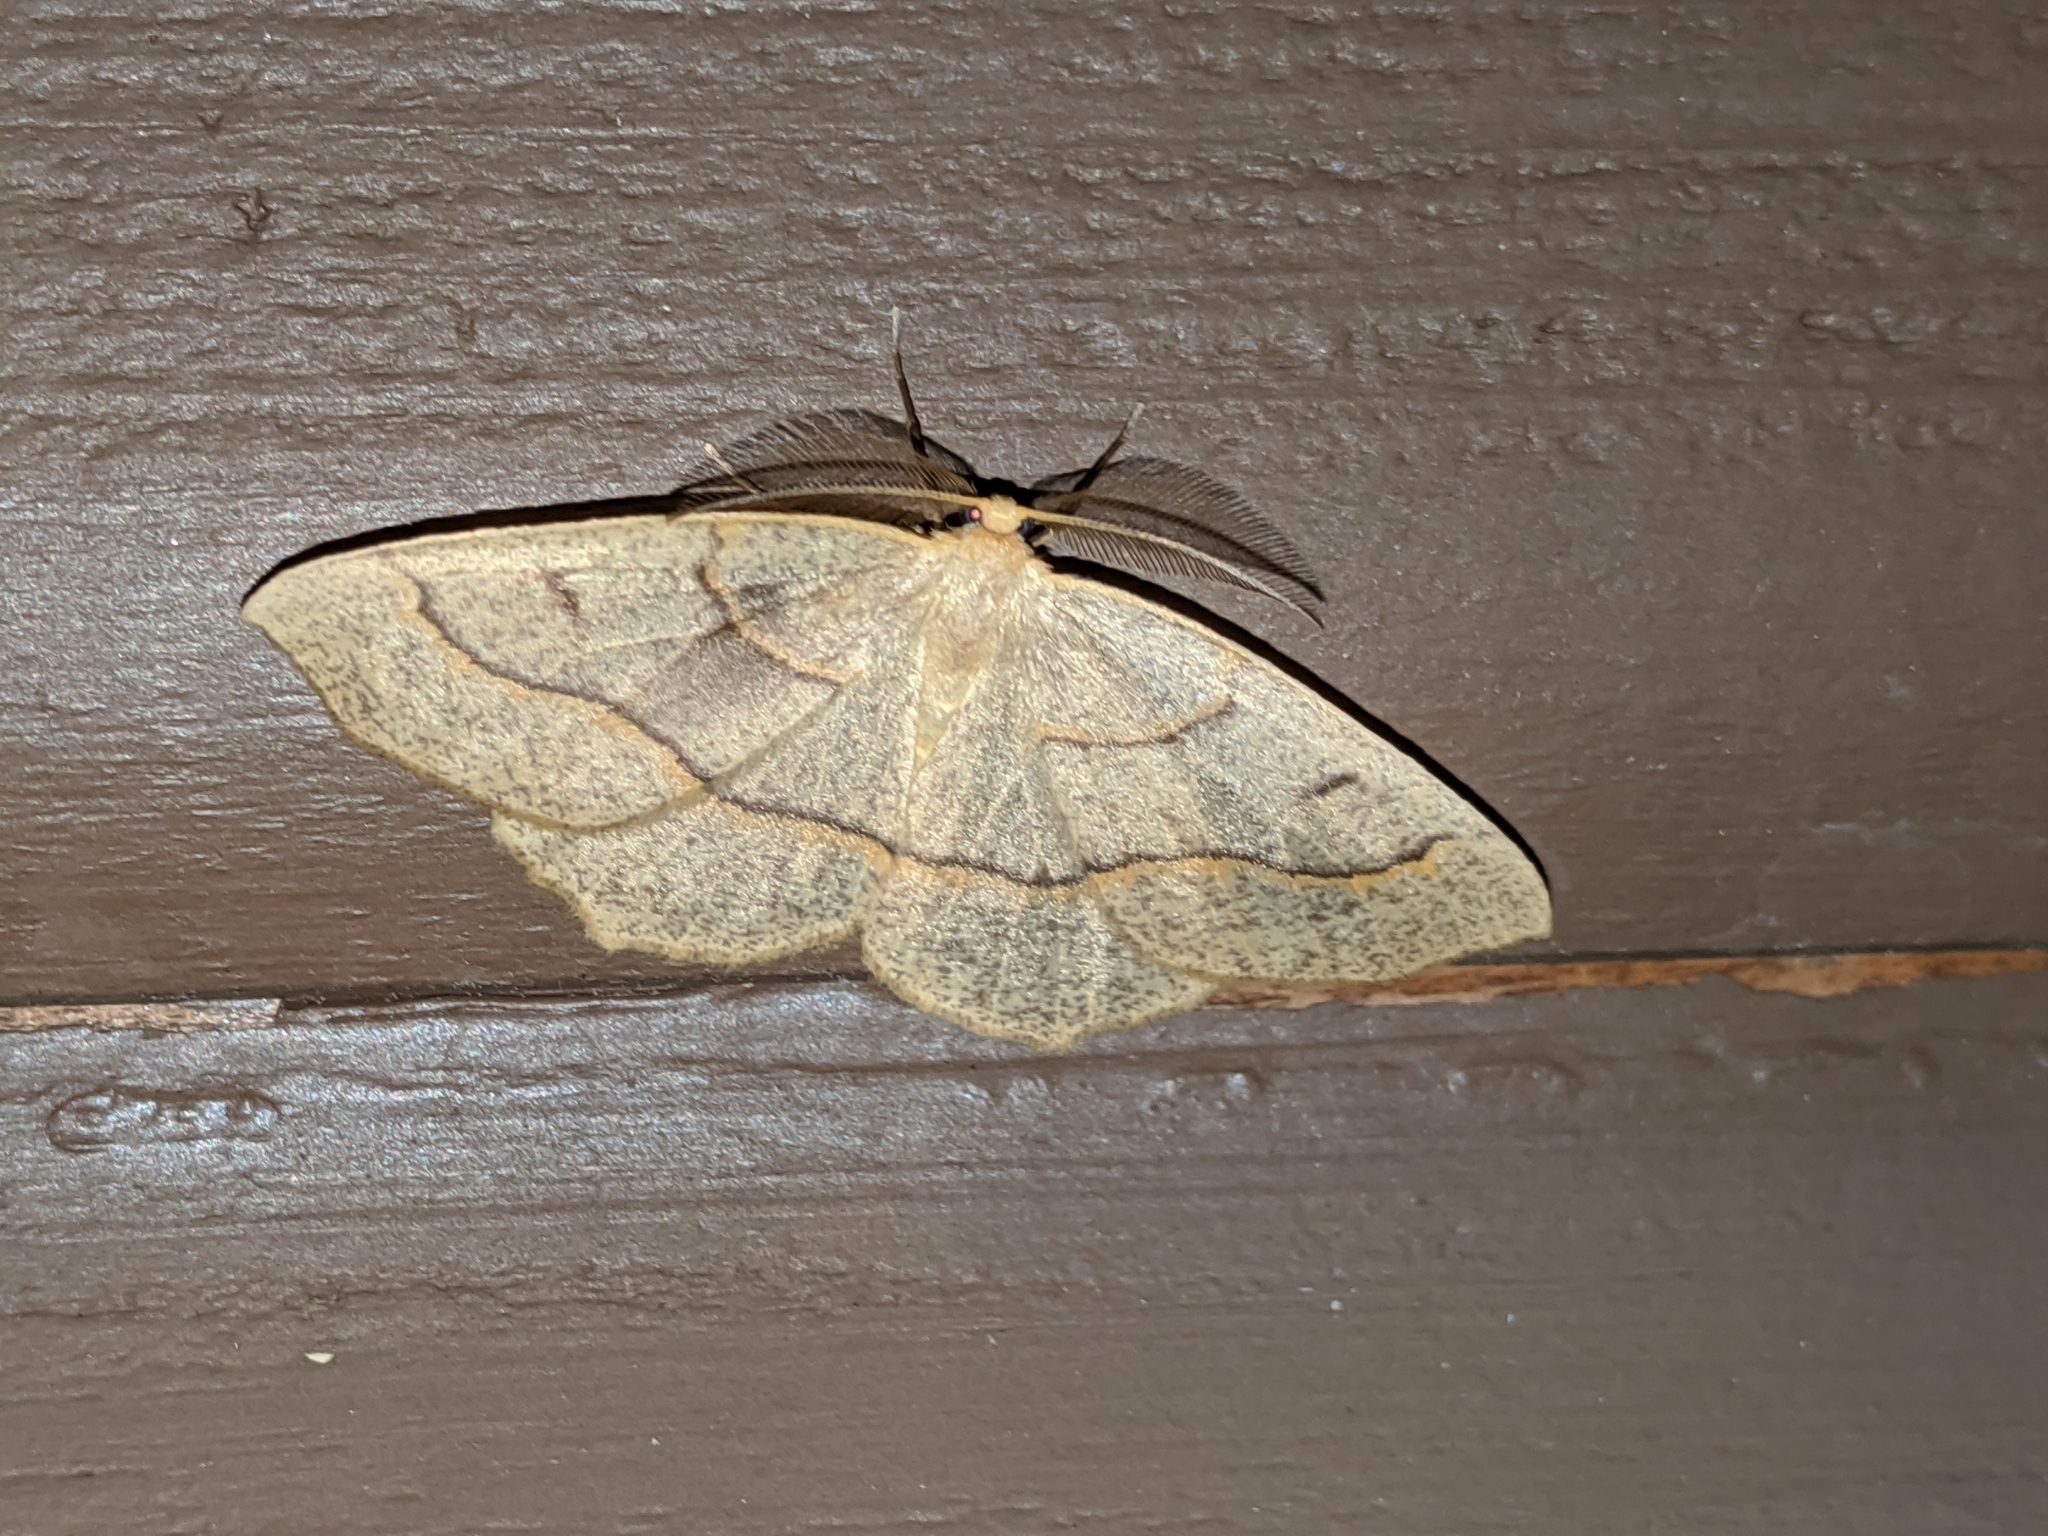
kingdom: Animalia
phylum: Arthropoda
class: Insecta
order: Lepidoptera
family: Geometridae
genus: Lambdina
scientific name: Lambdina fiscellaria
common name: Hemlock looper
